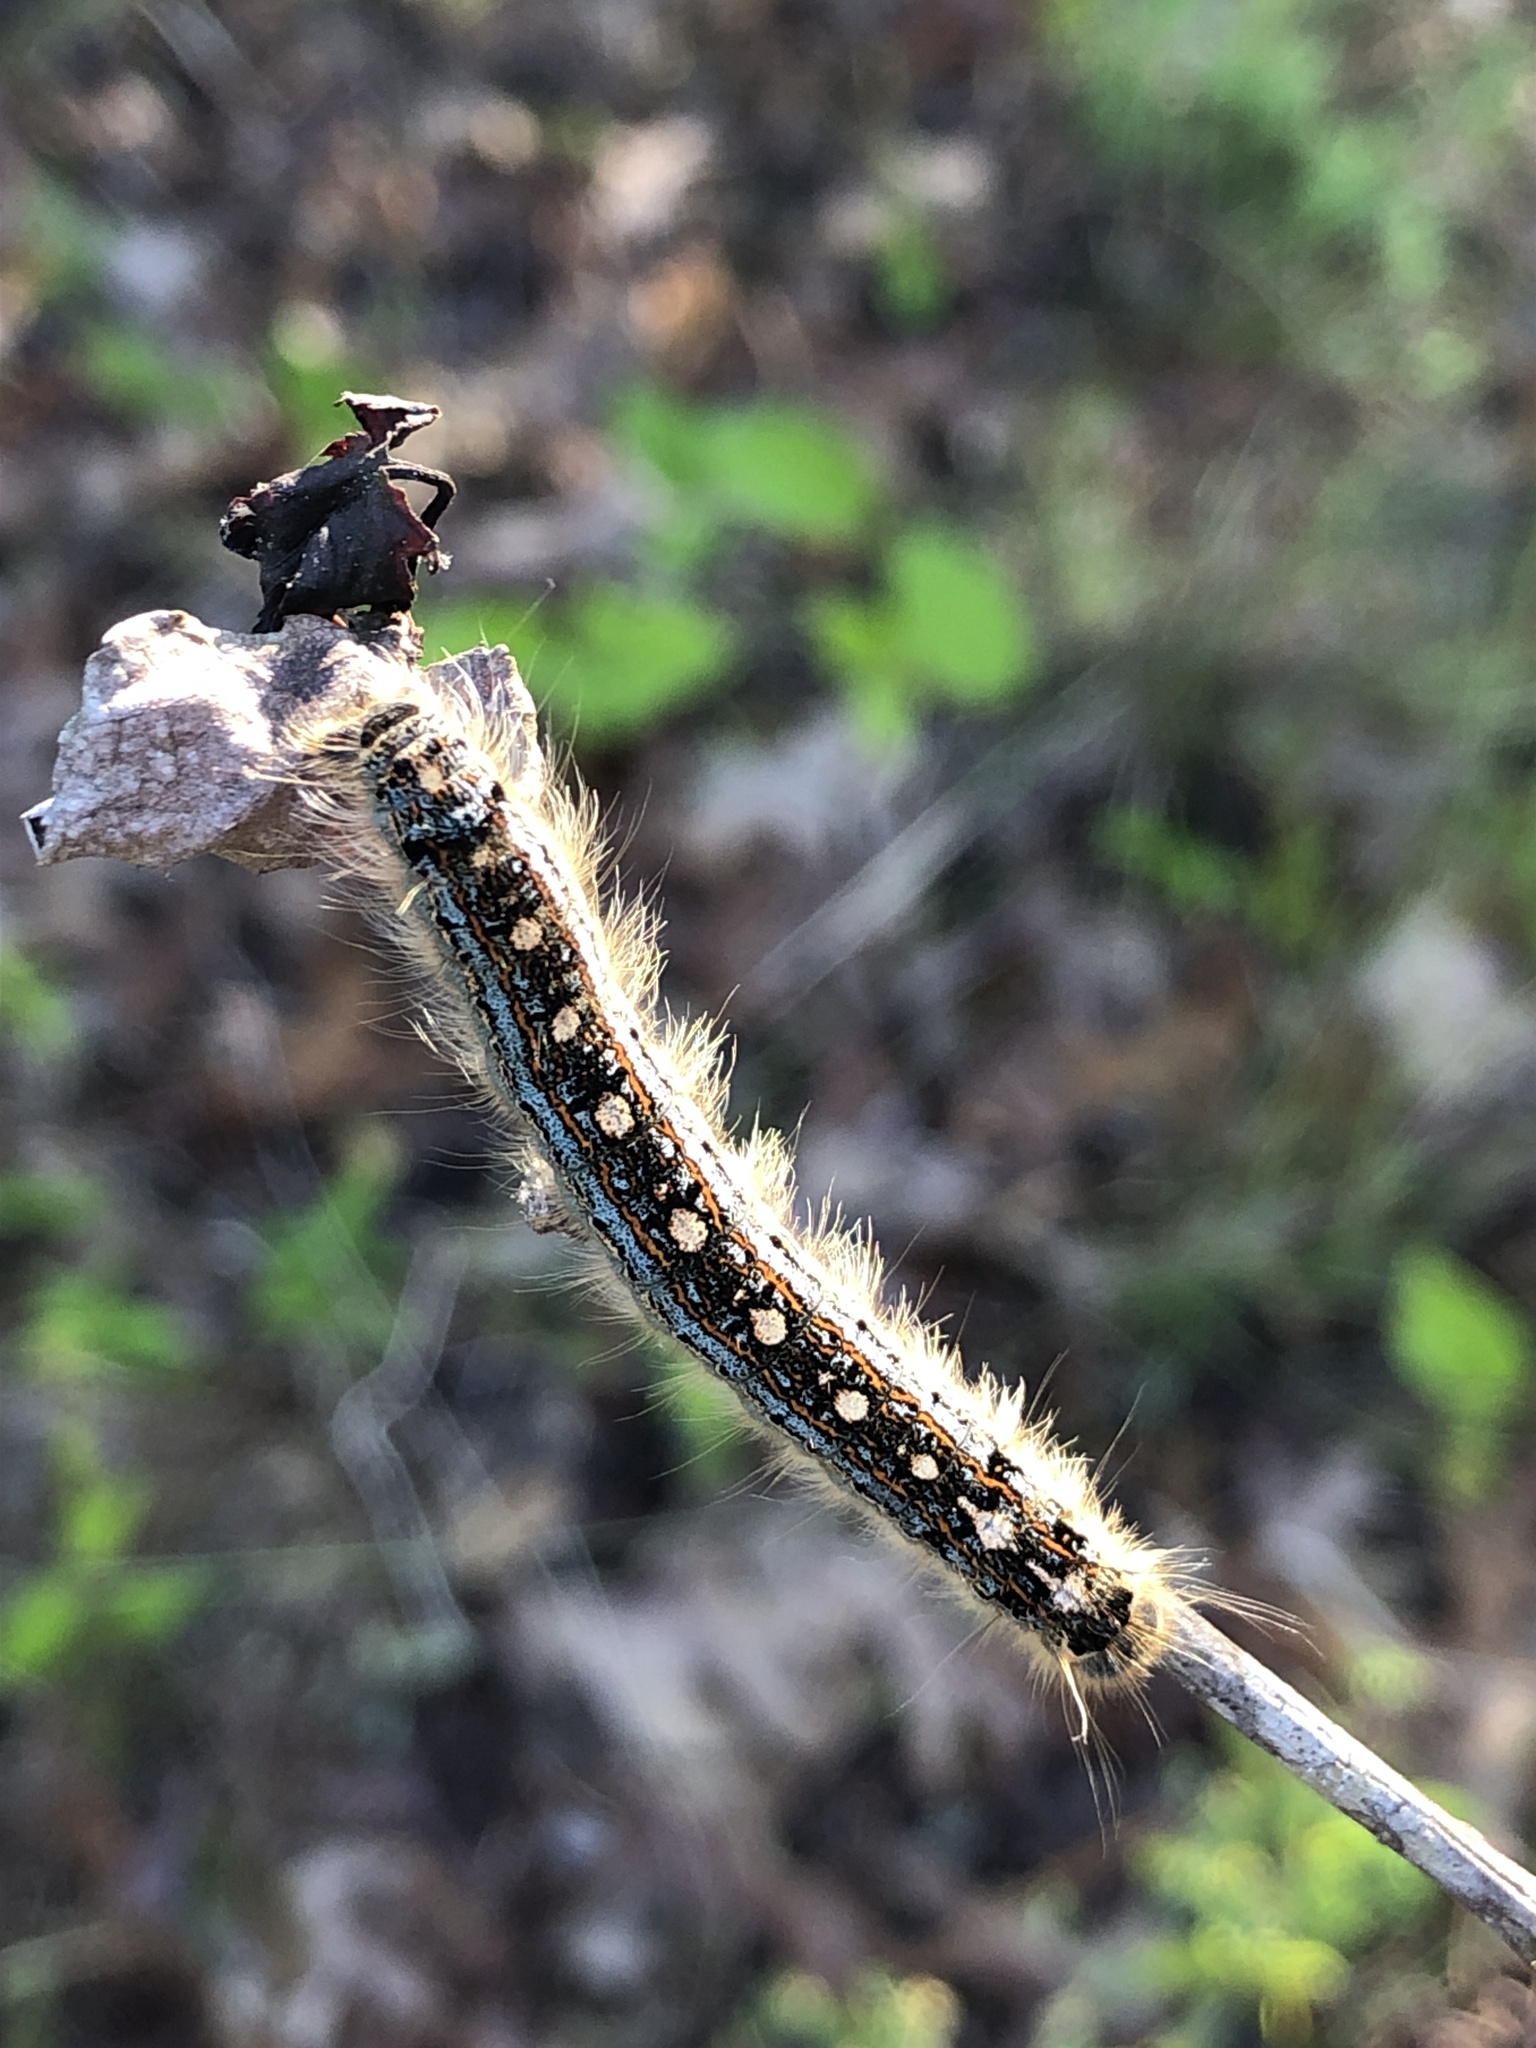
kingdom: Animalia
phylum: Arthropoda
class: Insecta
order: Lepidoptera
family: Lasiocampidae
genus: Malacosoma
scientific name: Malacosoma disstria
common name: Forest tent caterpillar
